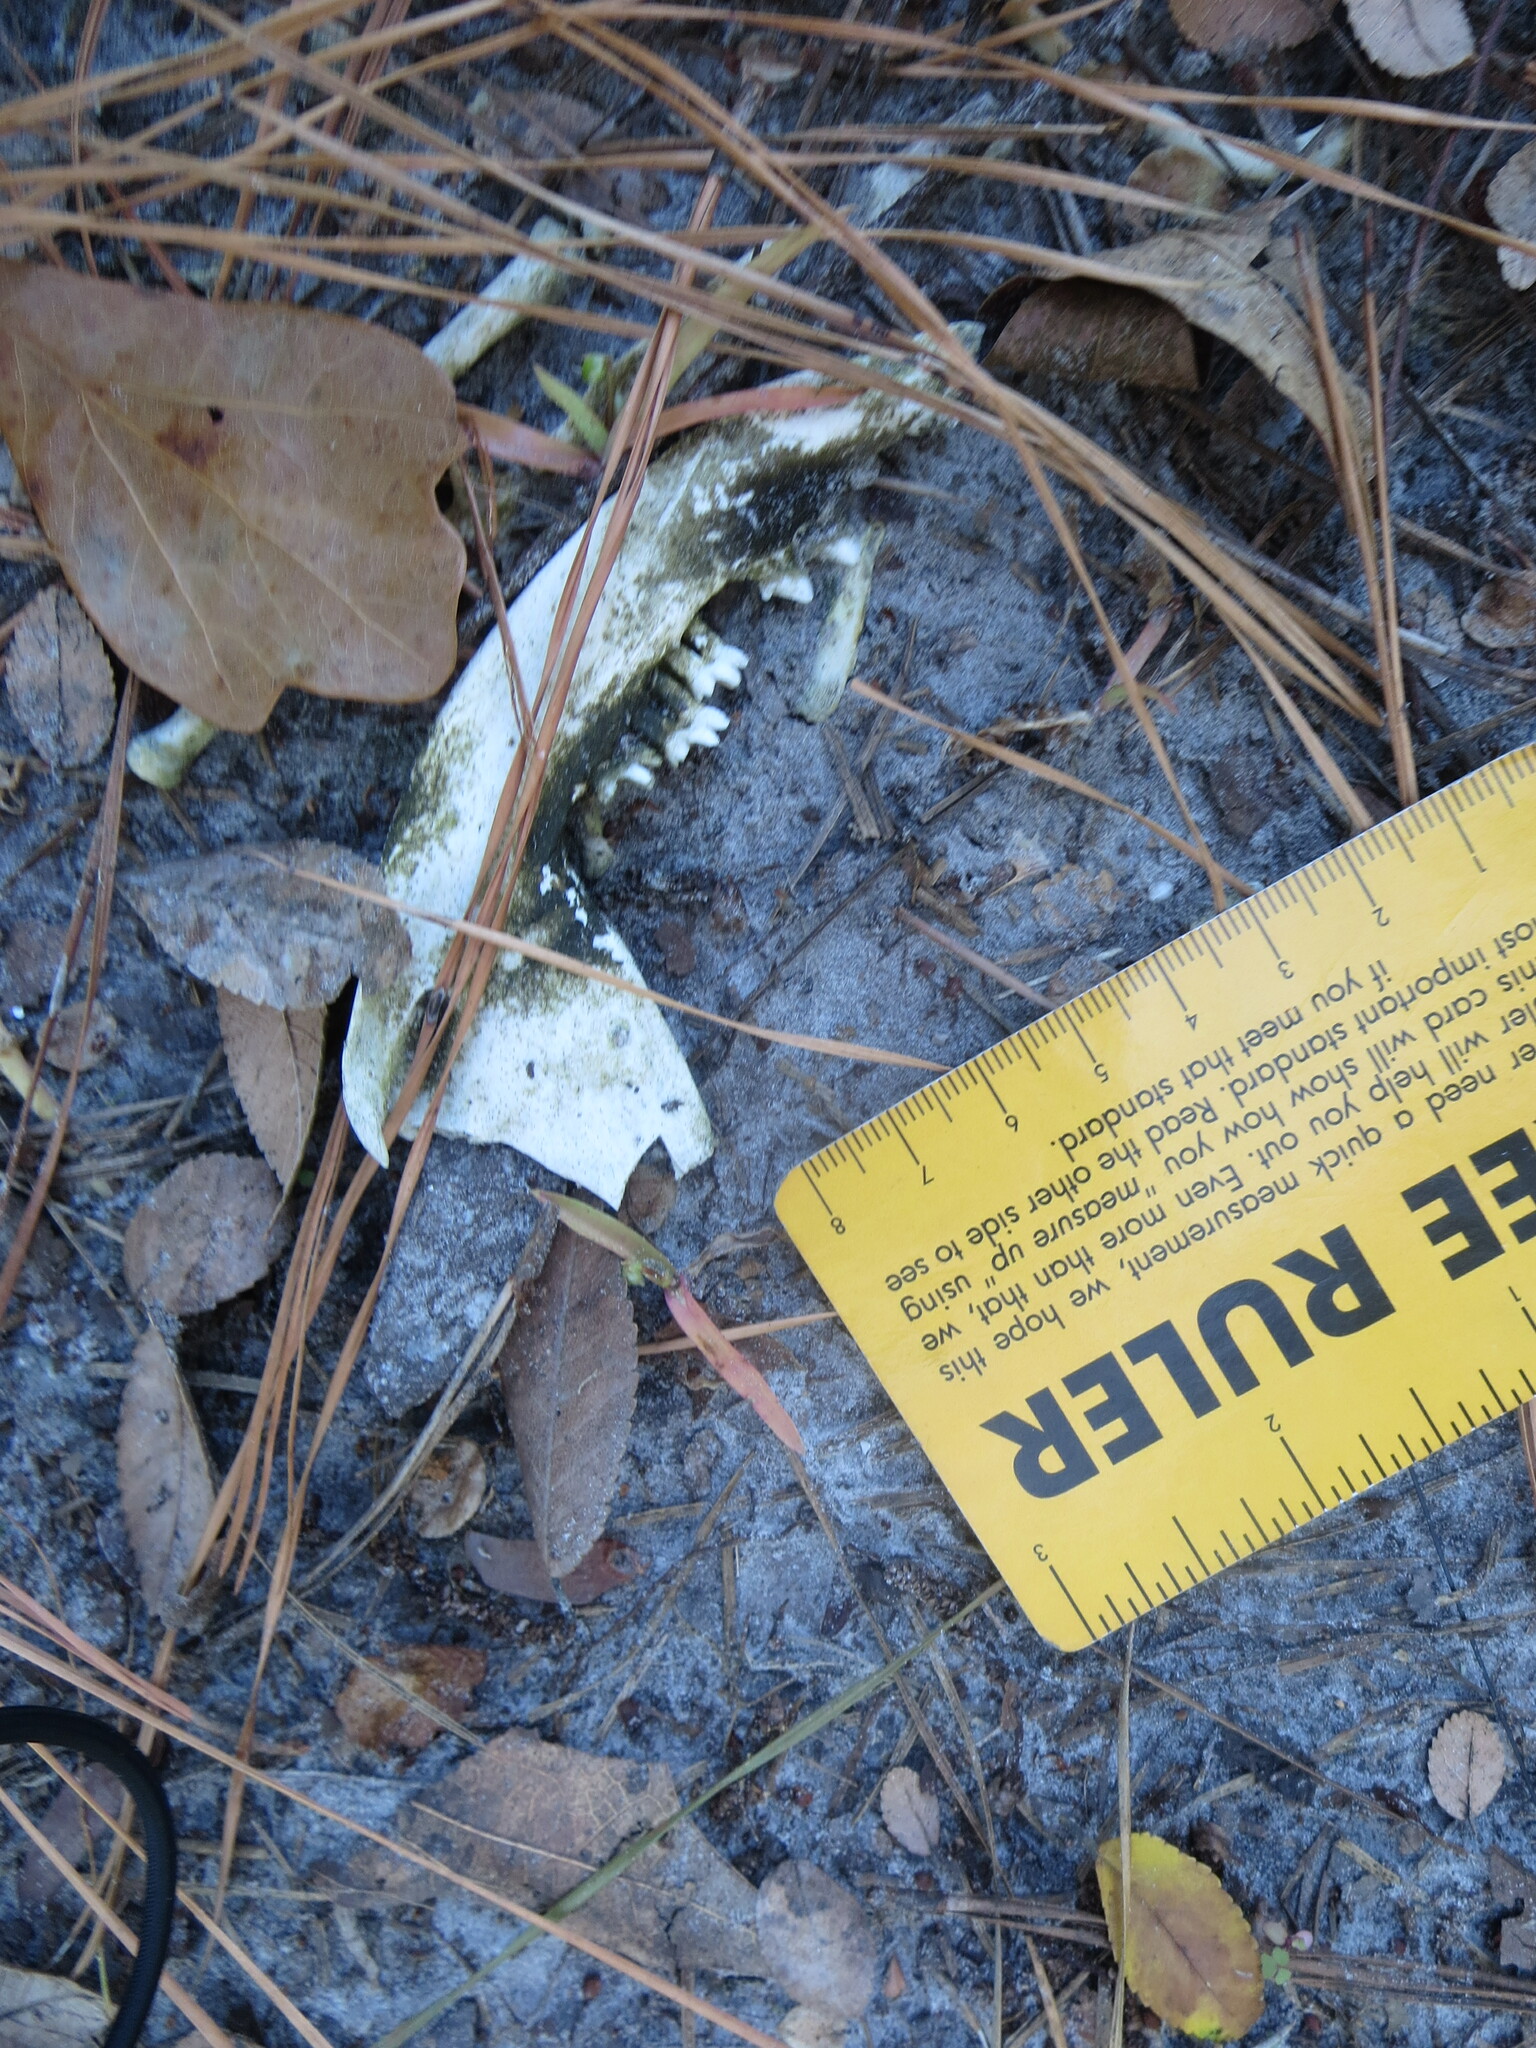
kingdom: Animalia
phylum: Chordata
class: Mammalia
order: Didelphimorphia
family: Didelphidae
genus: Didelphis
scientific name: Didelphis virginiana
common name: Virginia opossum
